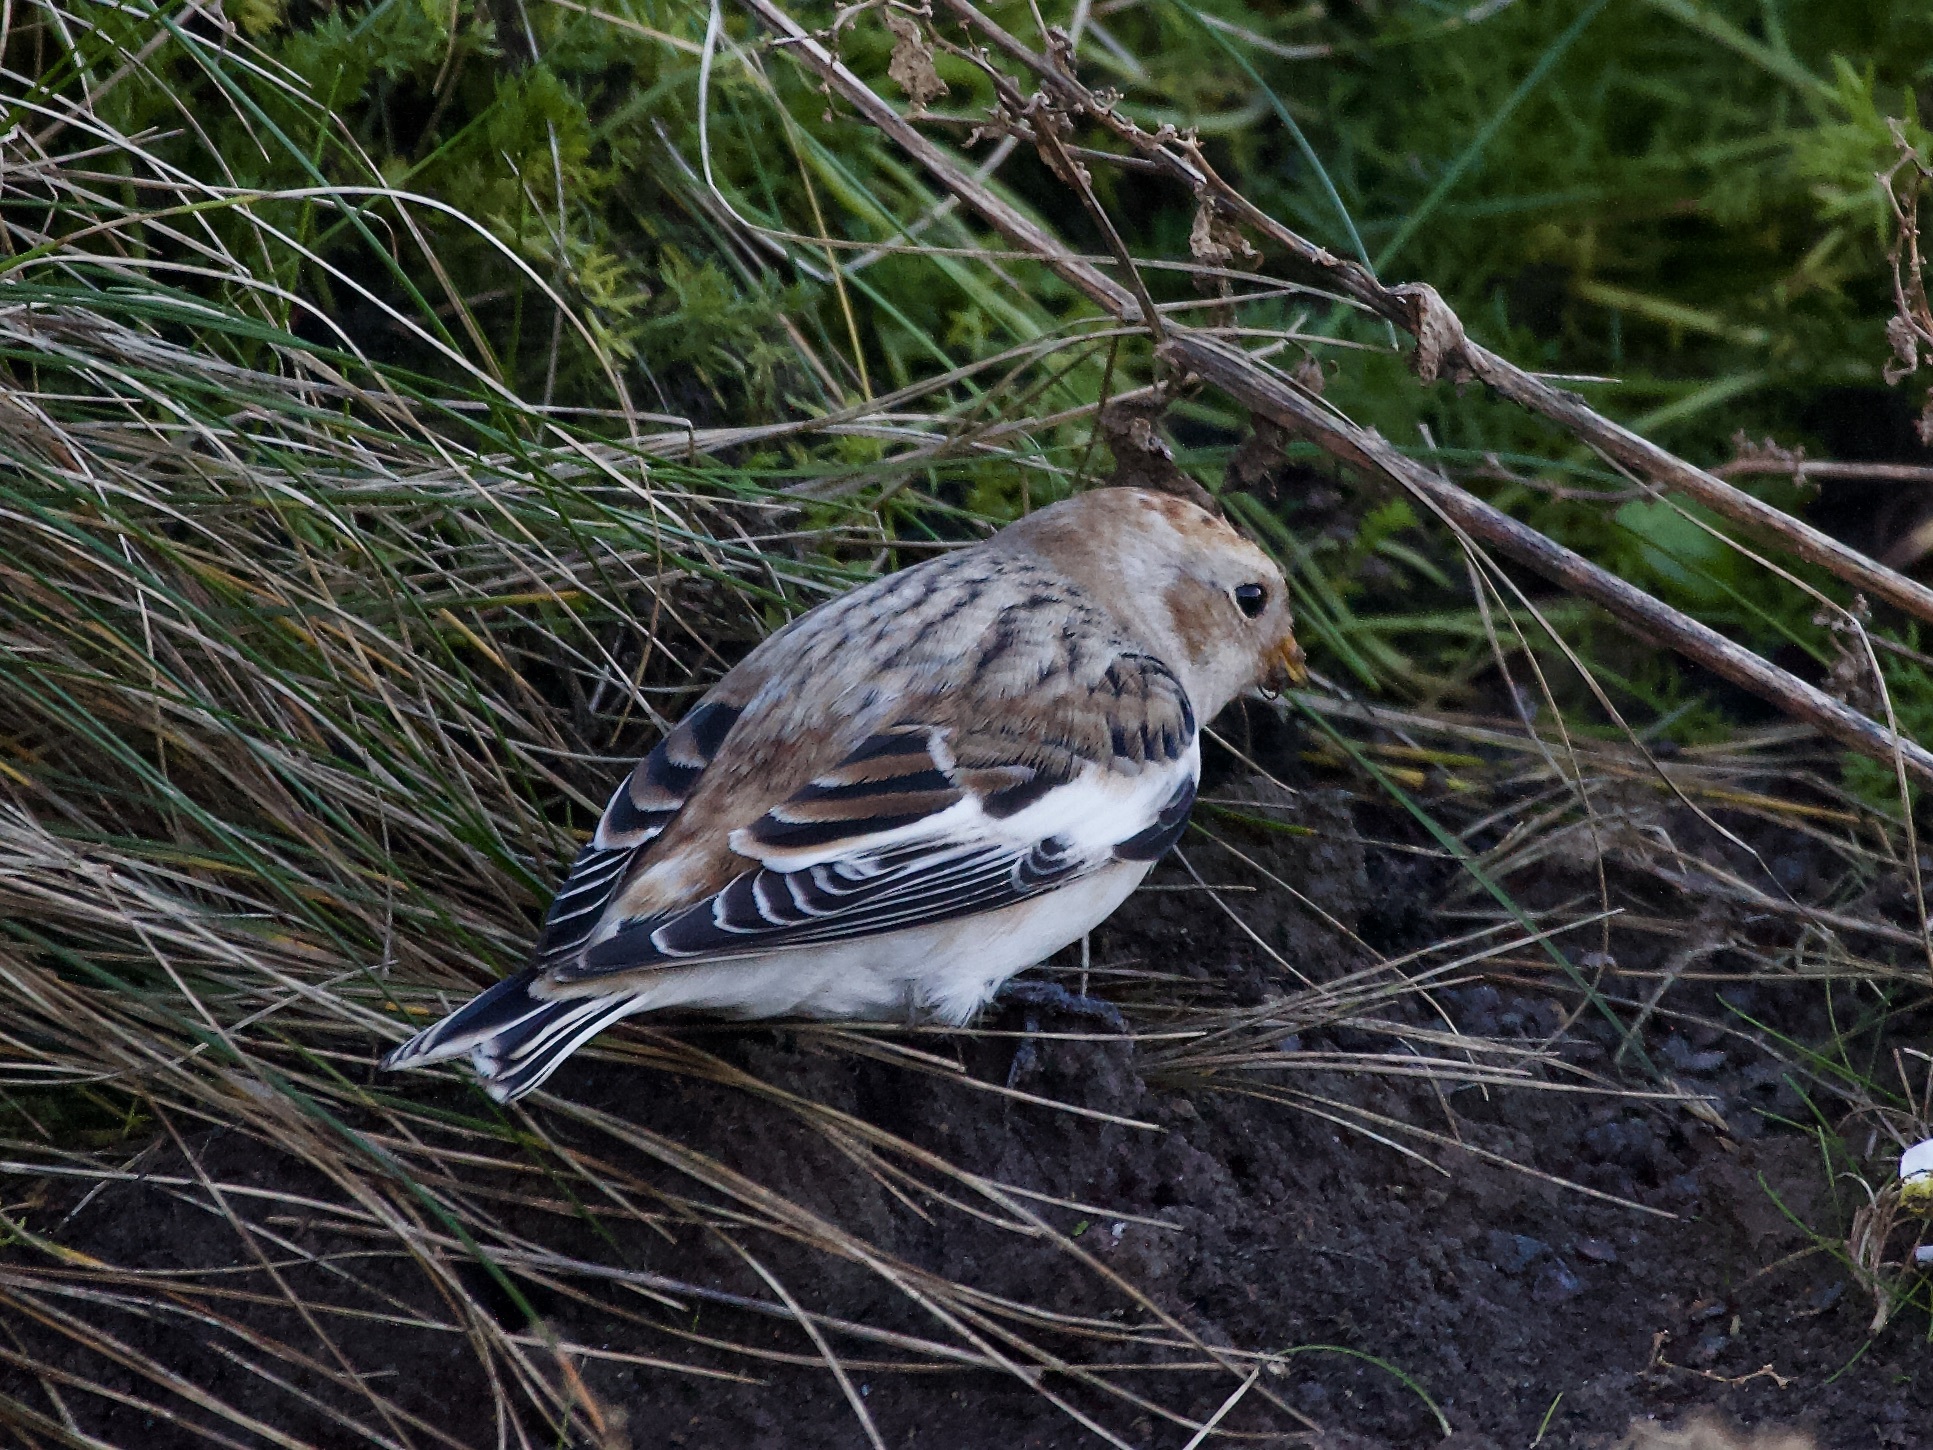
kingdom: Animalia
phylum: Chordata
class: Aves
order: Passeriformes
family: Calcariidae
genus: Plectrophenax
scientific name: Plectrophenax nivalis
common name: Snow bunting
